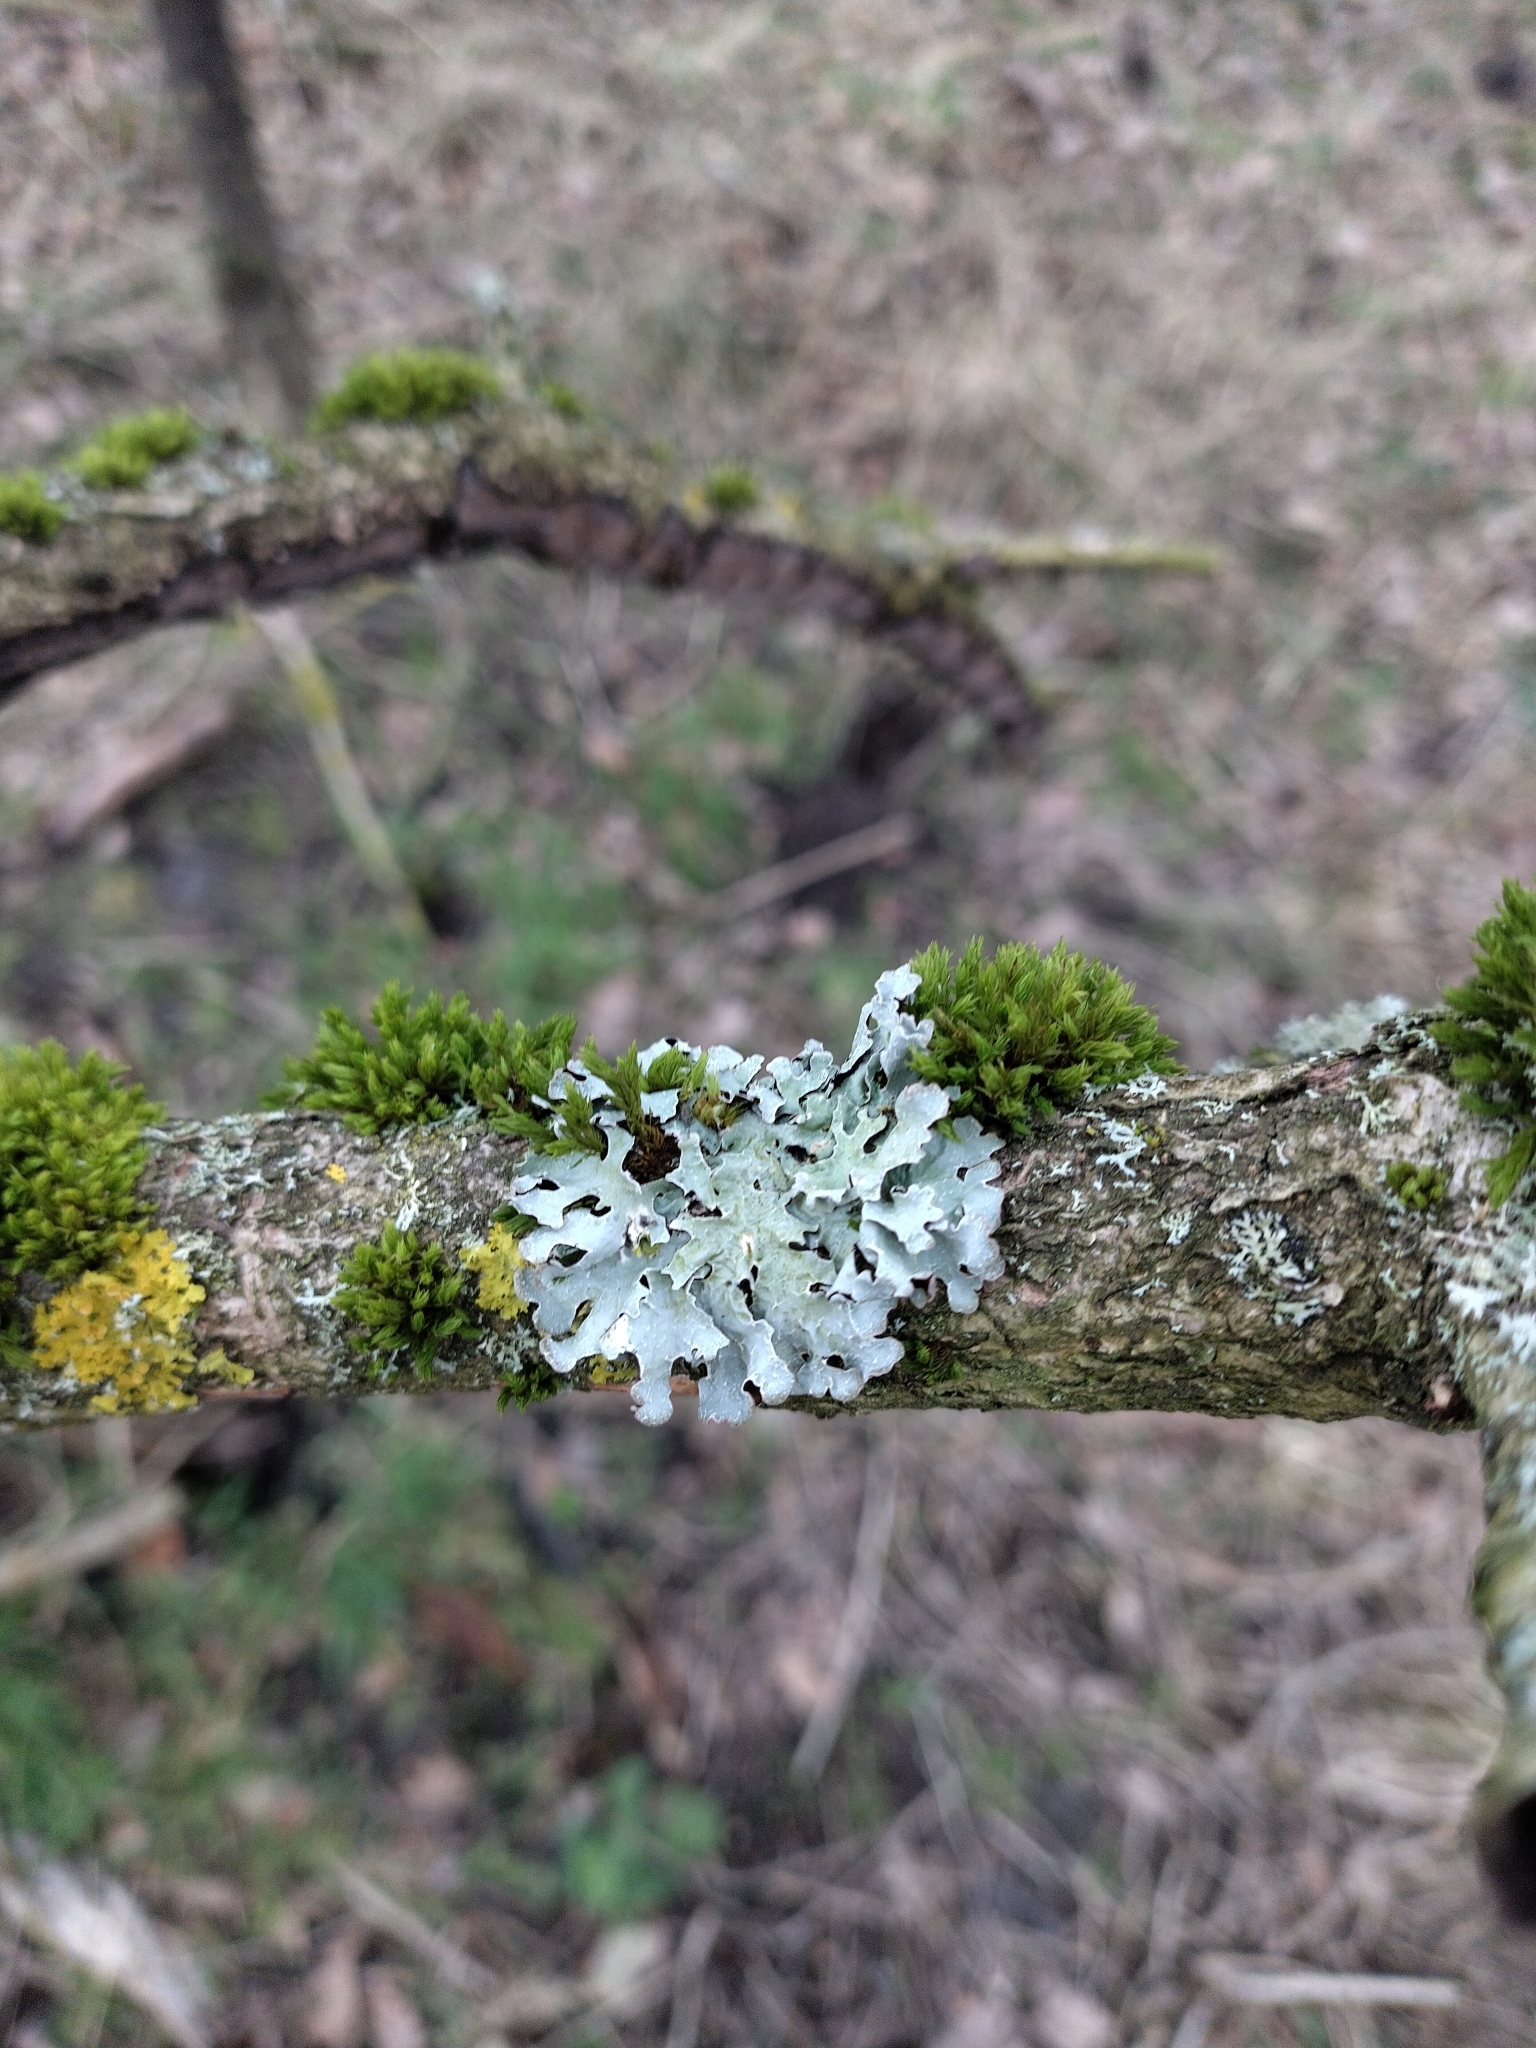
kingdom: Fungi
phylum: Ascomycota
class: Lecanoromycetes
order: Lecanorales
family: Parmeliaceae
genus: Parmelia
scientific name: Parmelia sulcata
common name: Netted shield lichen
